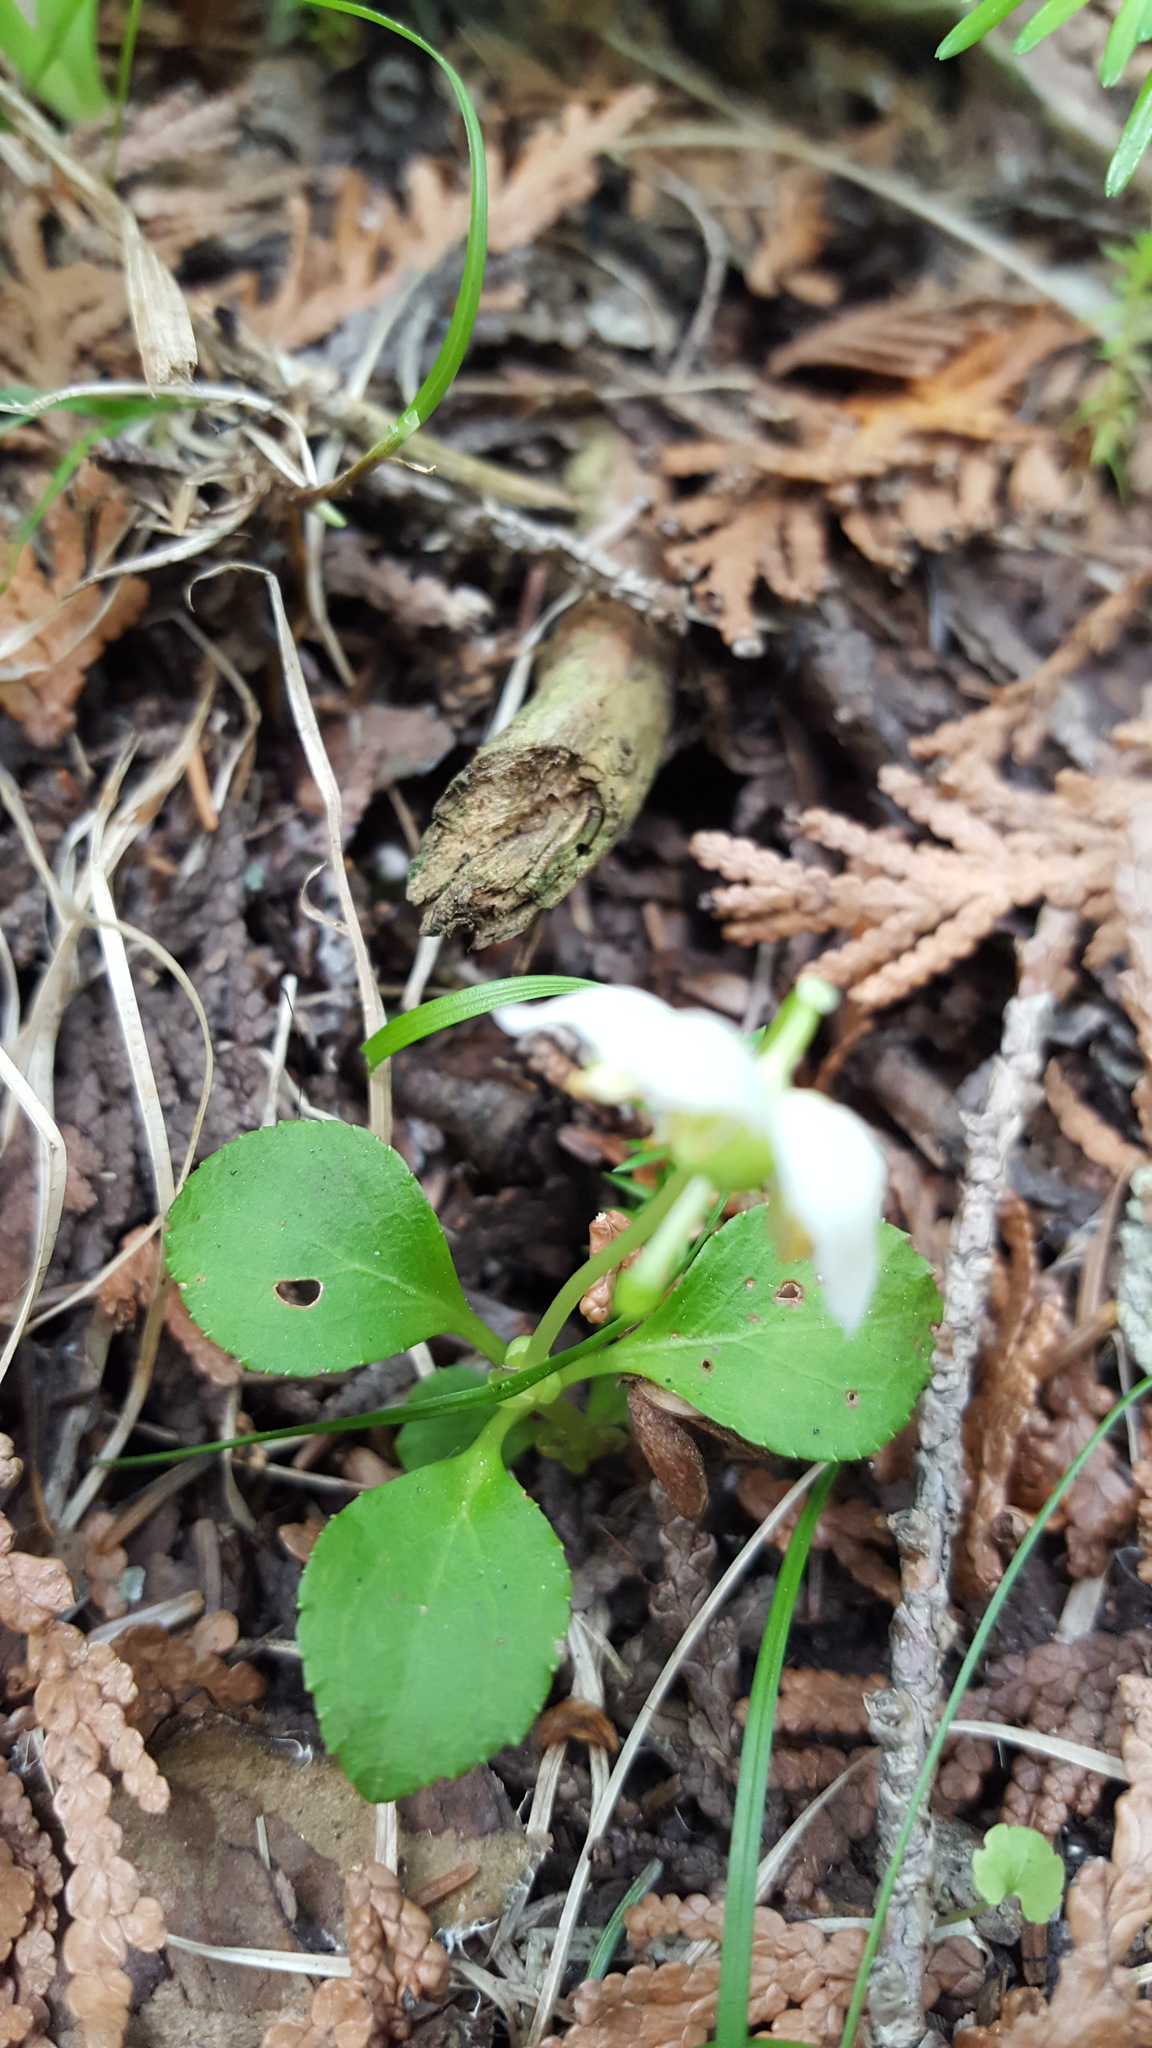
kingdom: Plantae
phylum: Tracheophyta
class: Magnoliopsida
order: Ericales
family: Ericaceae
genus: Moneses
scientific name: Moneses uniflora
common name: One-flowered wintergreen
